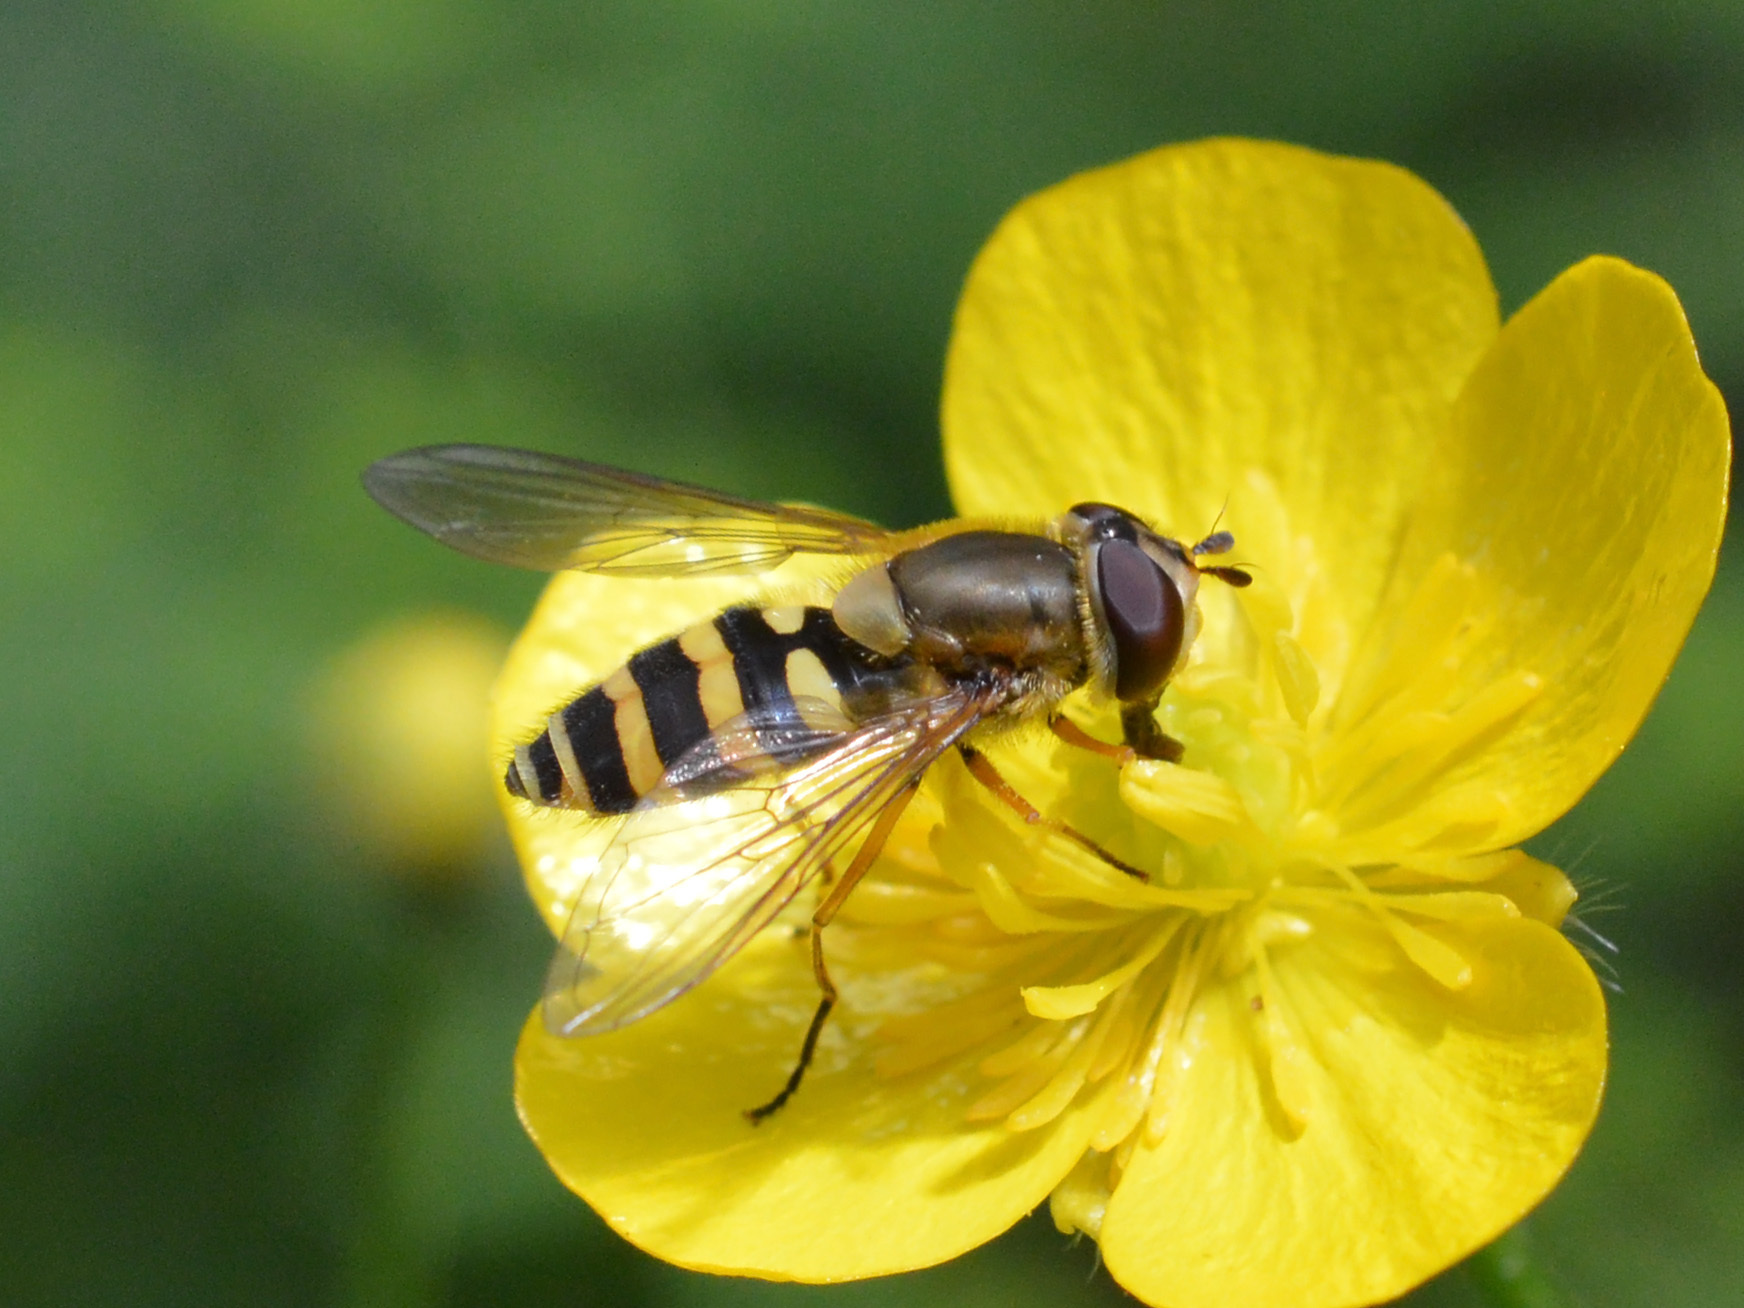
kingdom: Animalia
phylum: Arthropoda
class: Insecta
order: Diptera
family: Syrphidae
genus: Syrphus
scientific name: Syrphus ribesii
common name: Common flower fly
